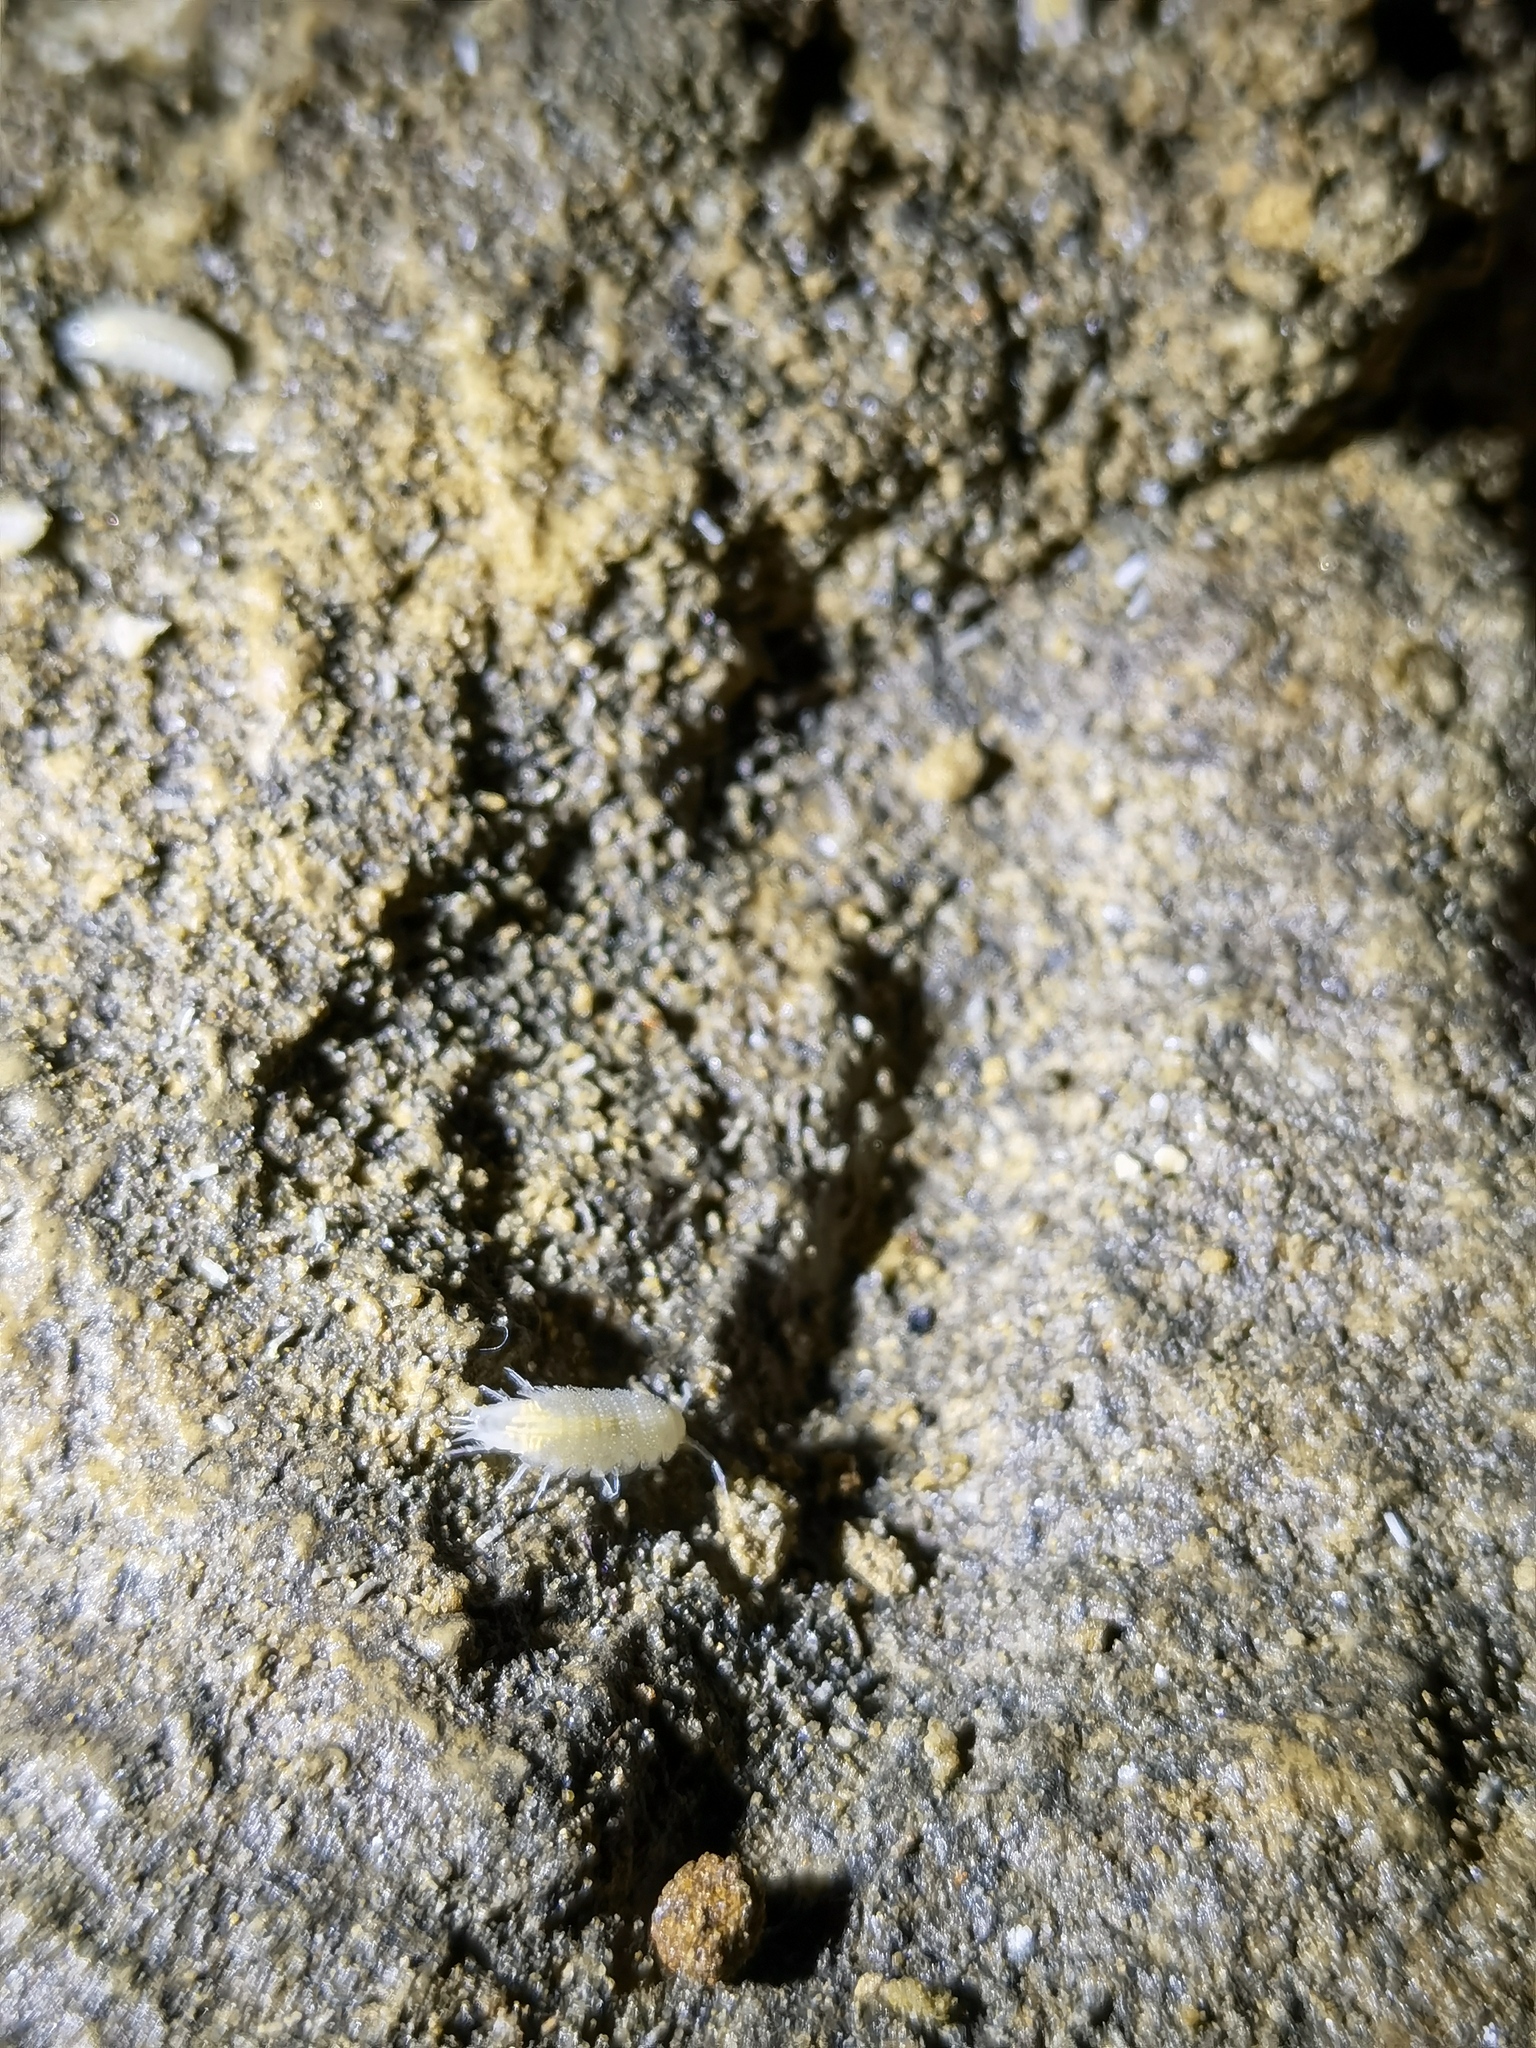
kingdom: Animalia
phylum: Arthropoda
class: Malacostraca
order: Isopoda
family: Trichoniscidae
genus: Androniscus
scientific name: Androniscus dentiger
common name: Rosy woodlouse
